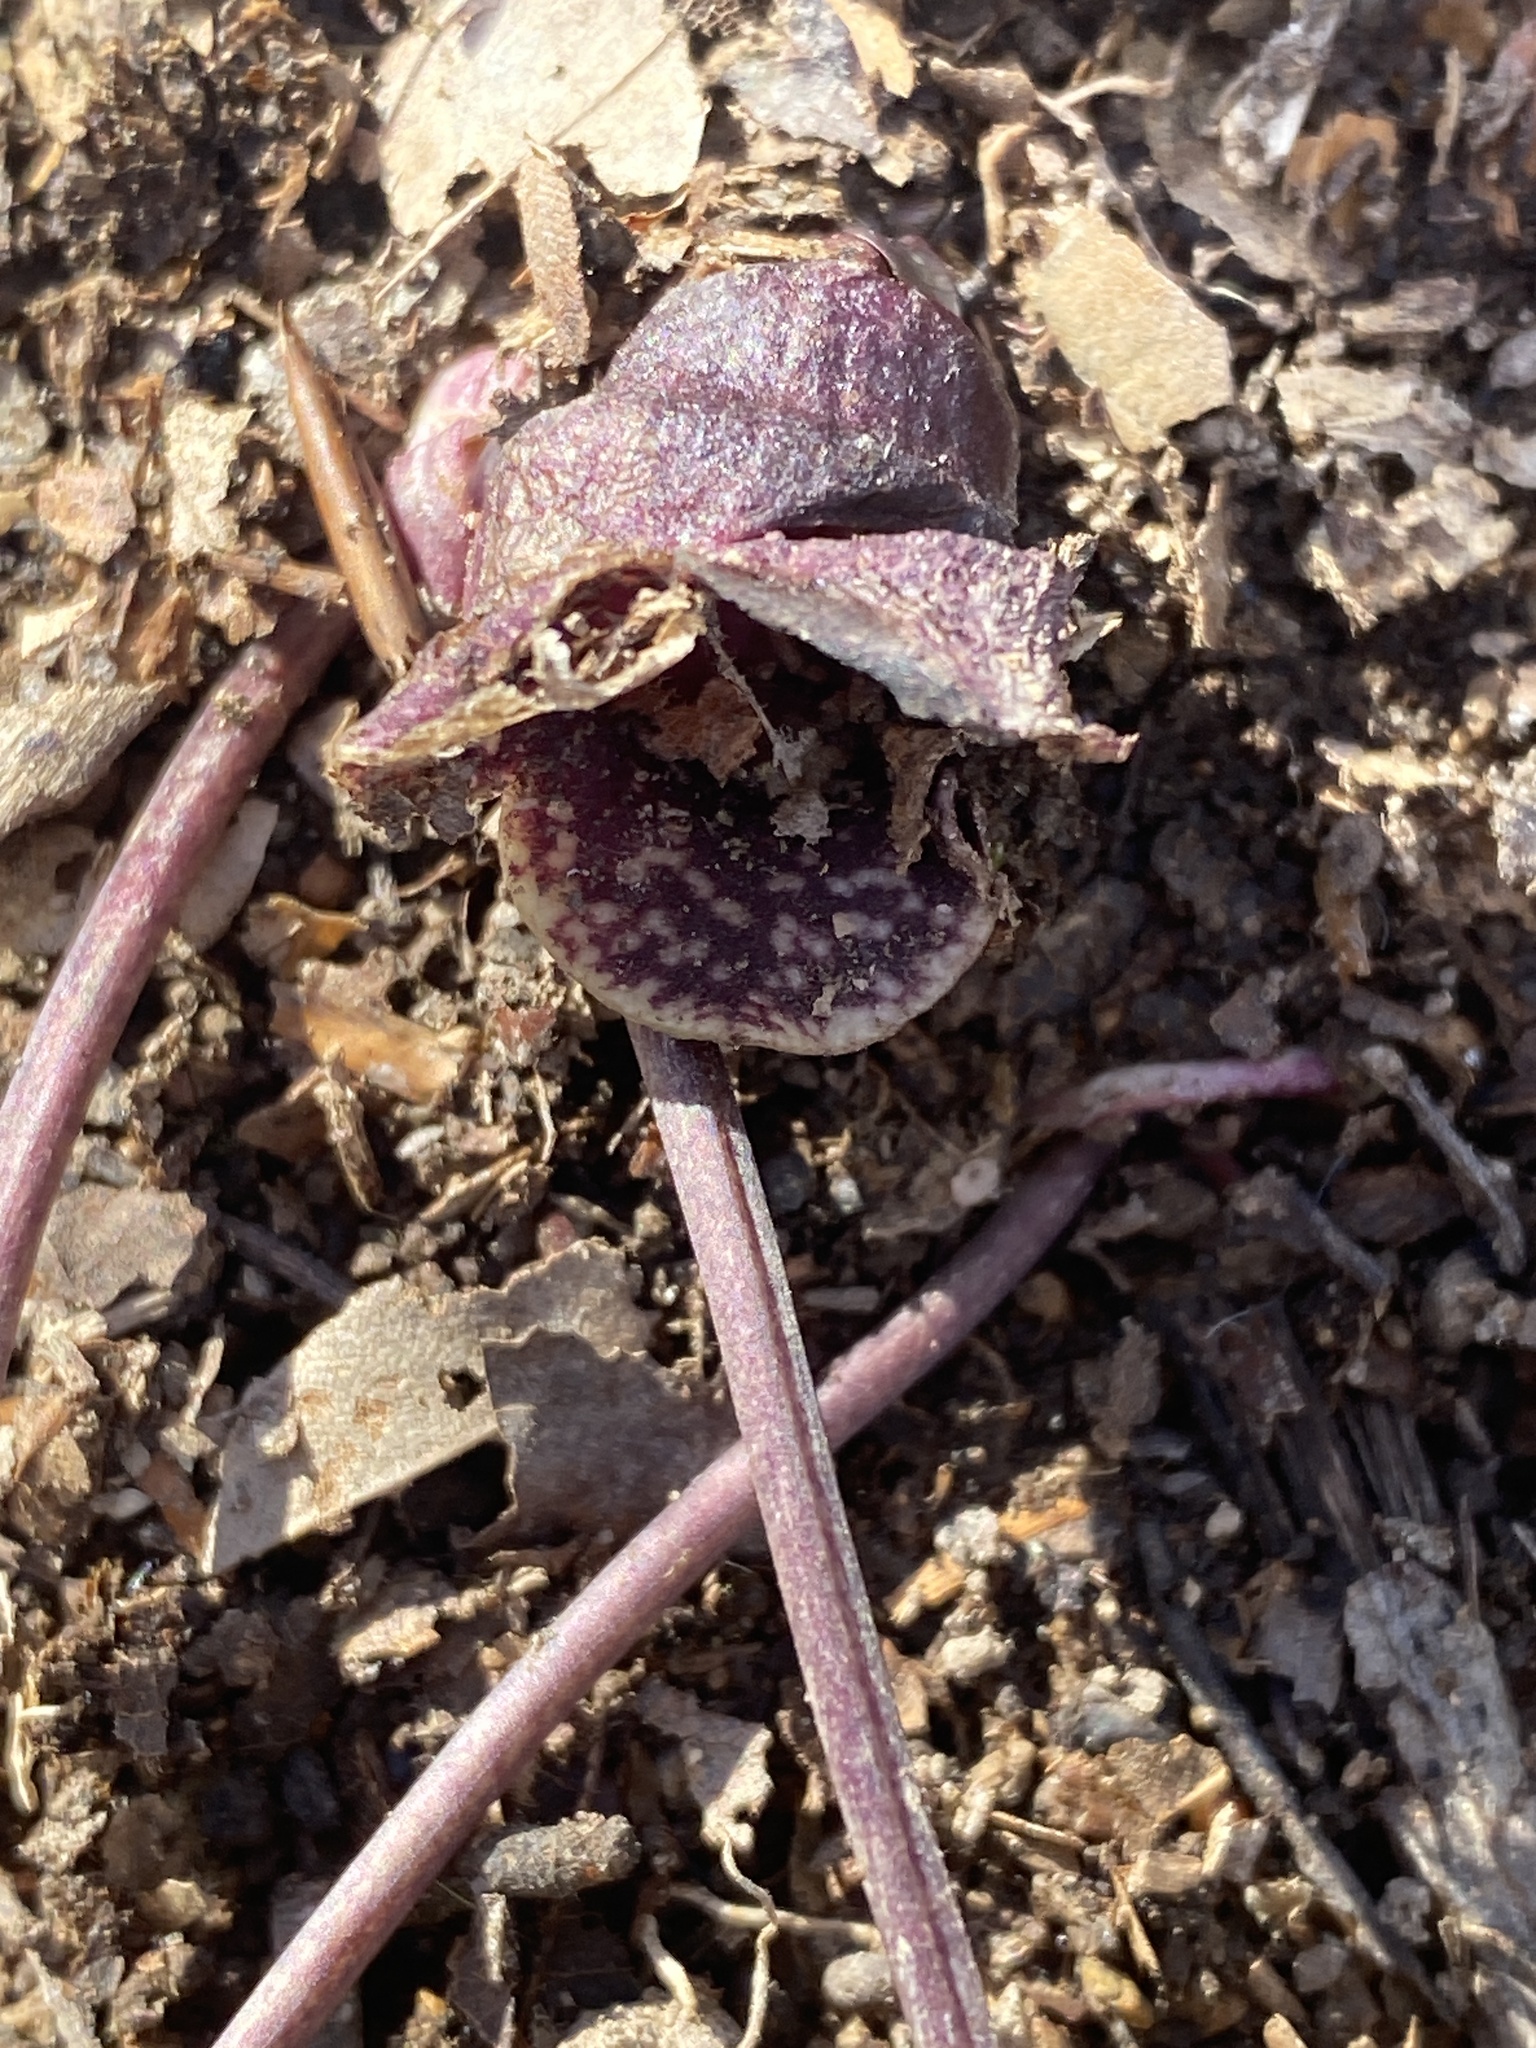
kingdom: Plantae
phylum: Tracheophyta
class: Magnoliopsida
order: Piperales
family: Aristolochiaceae
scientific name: Aristolochiaceae
